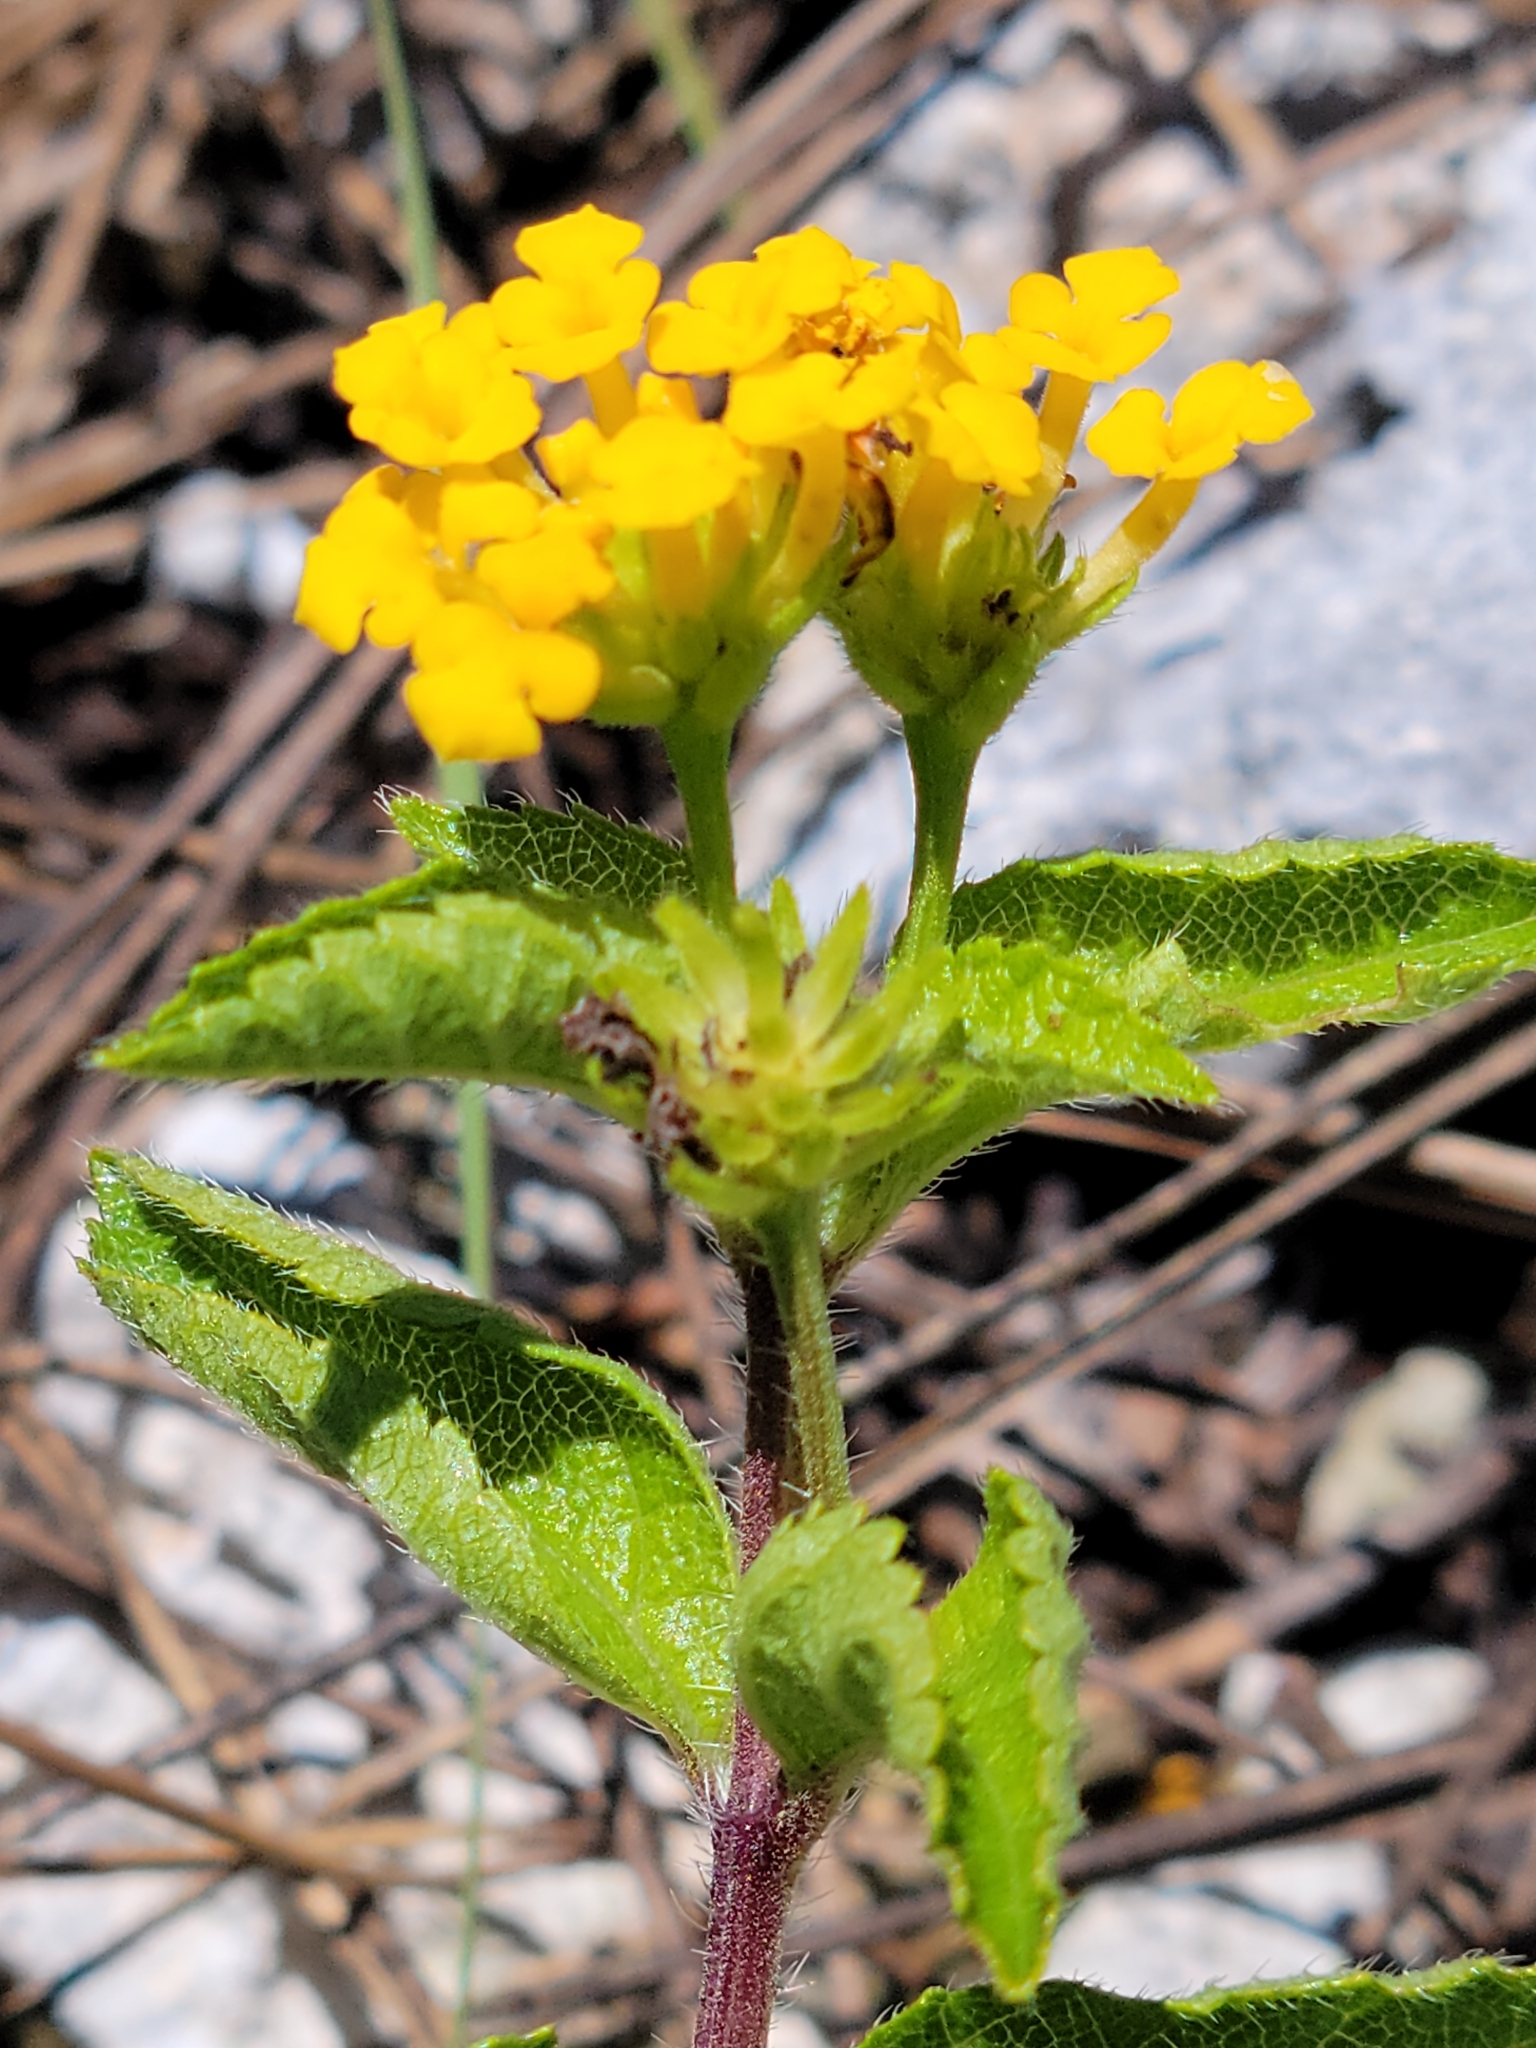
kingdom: Plantae
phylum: Tracheophyta
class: Magnoliopsida
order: Lamiales
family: Verbenaceae
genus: Lantana
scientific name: Lantana depressa
